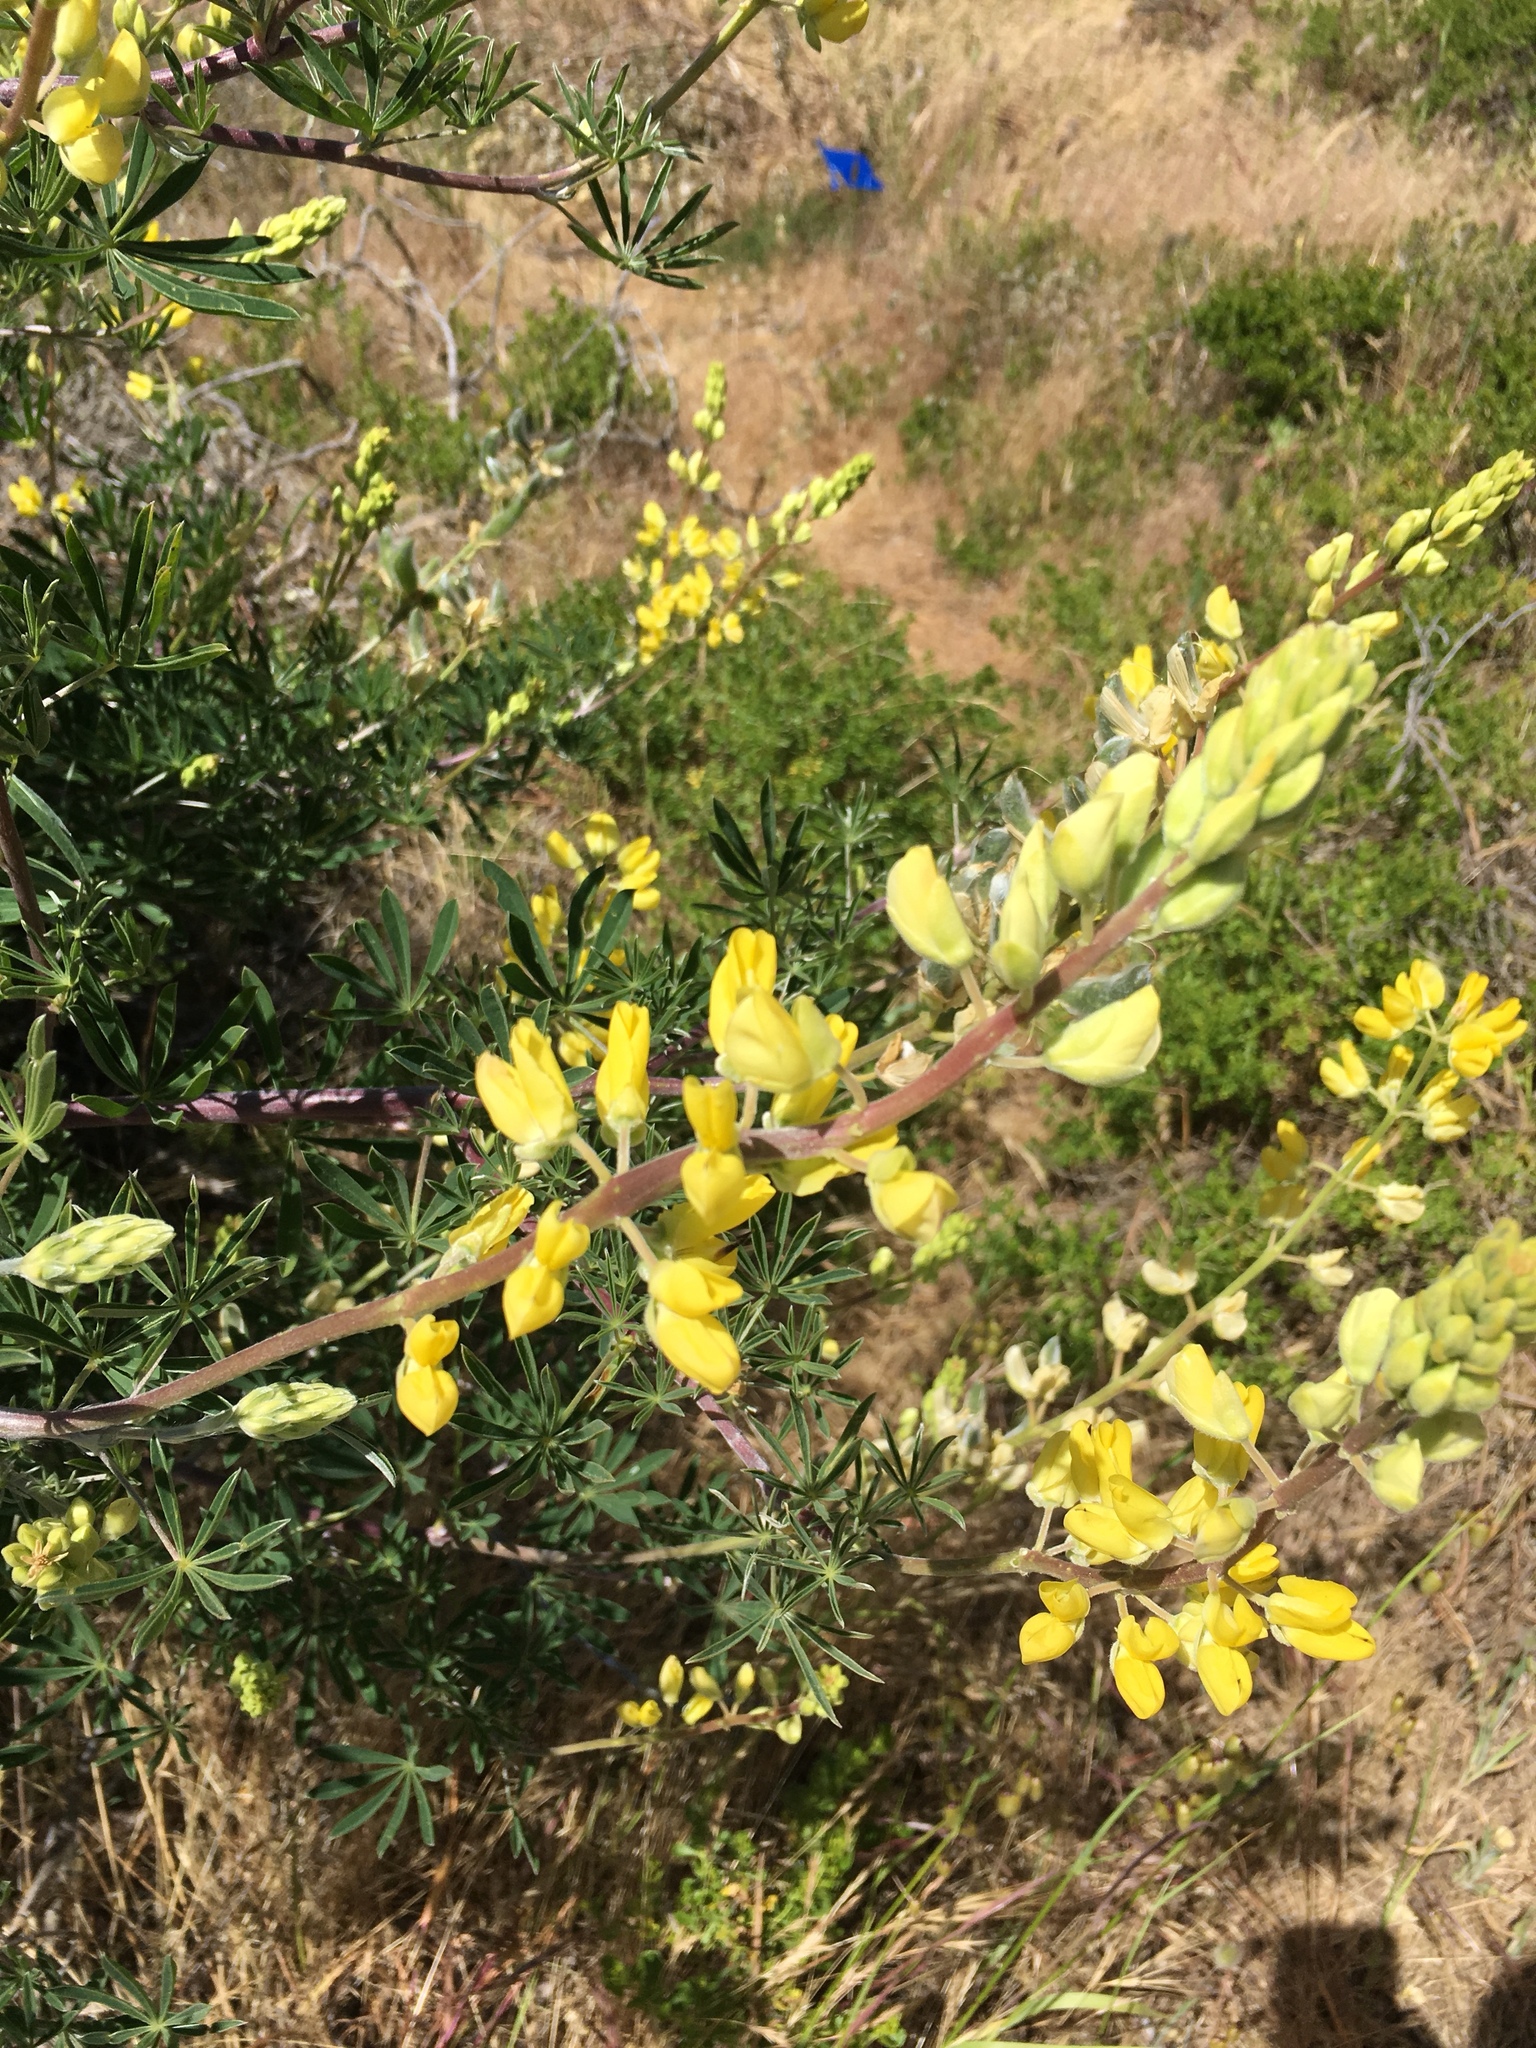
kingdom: Plantae
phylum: Tracheophyta
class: Magnoliopsida
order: Fabales
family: Fabaceae
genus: Lupinus
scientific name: Lupinus arboreus
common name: Yellow bush lupine
